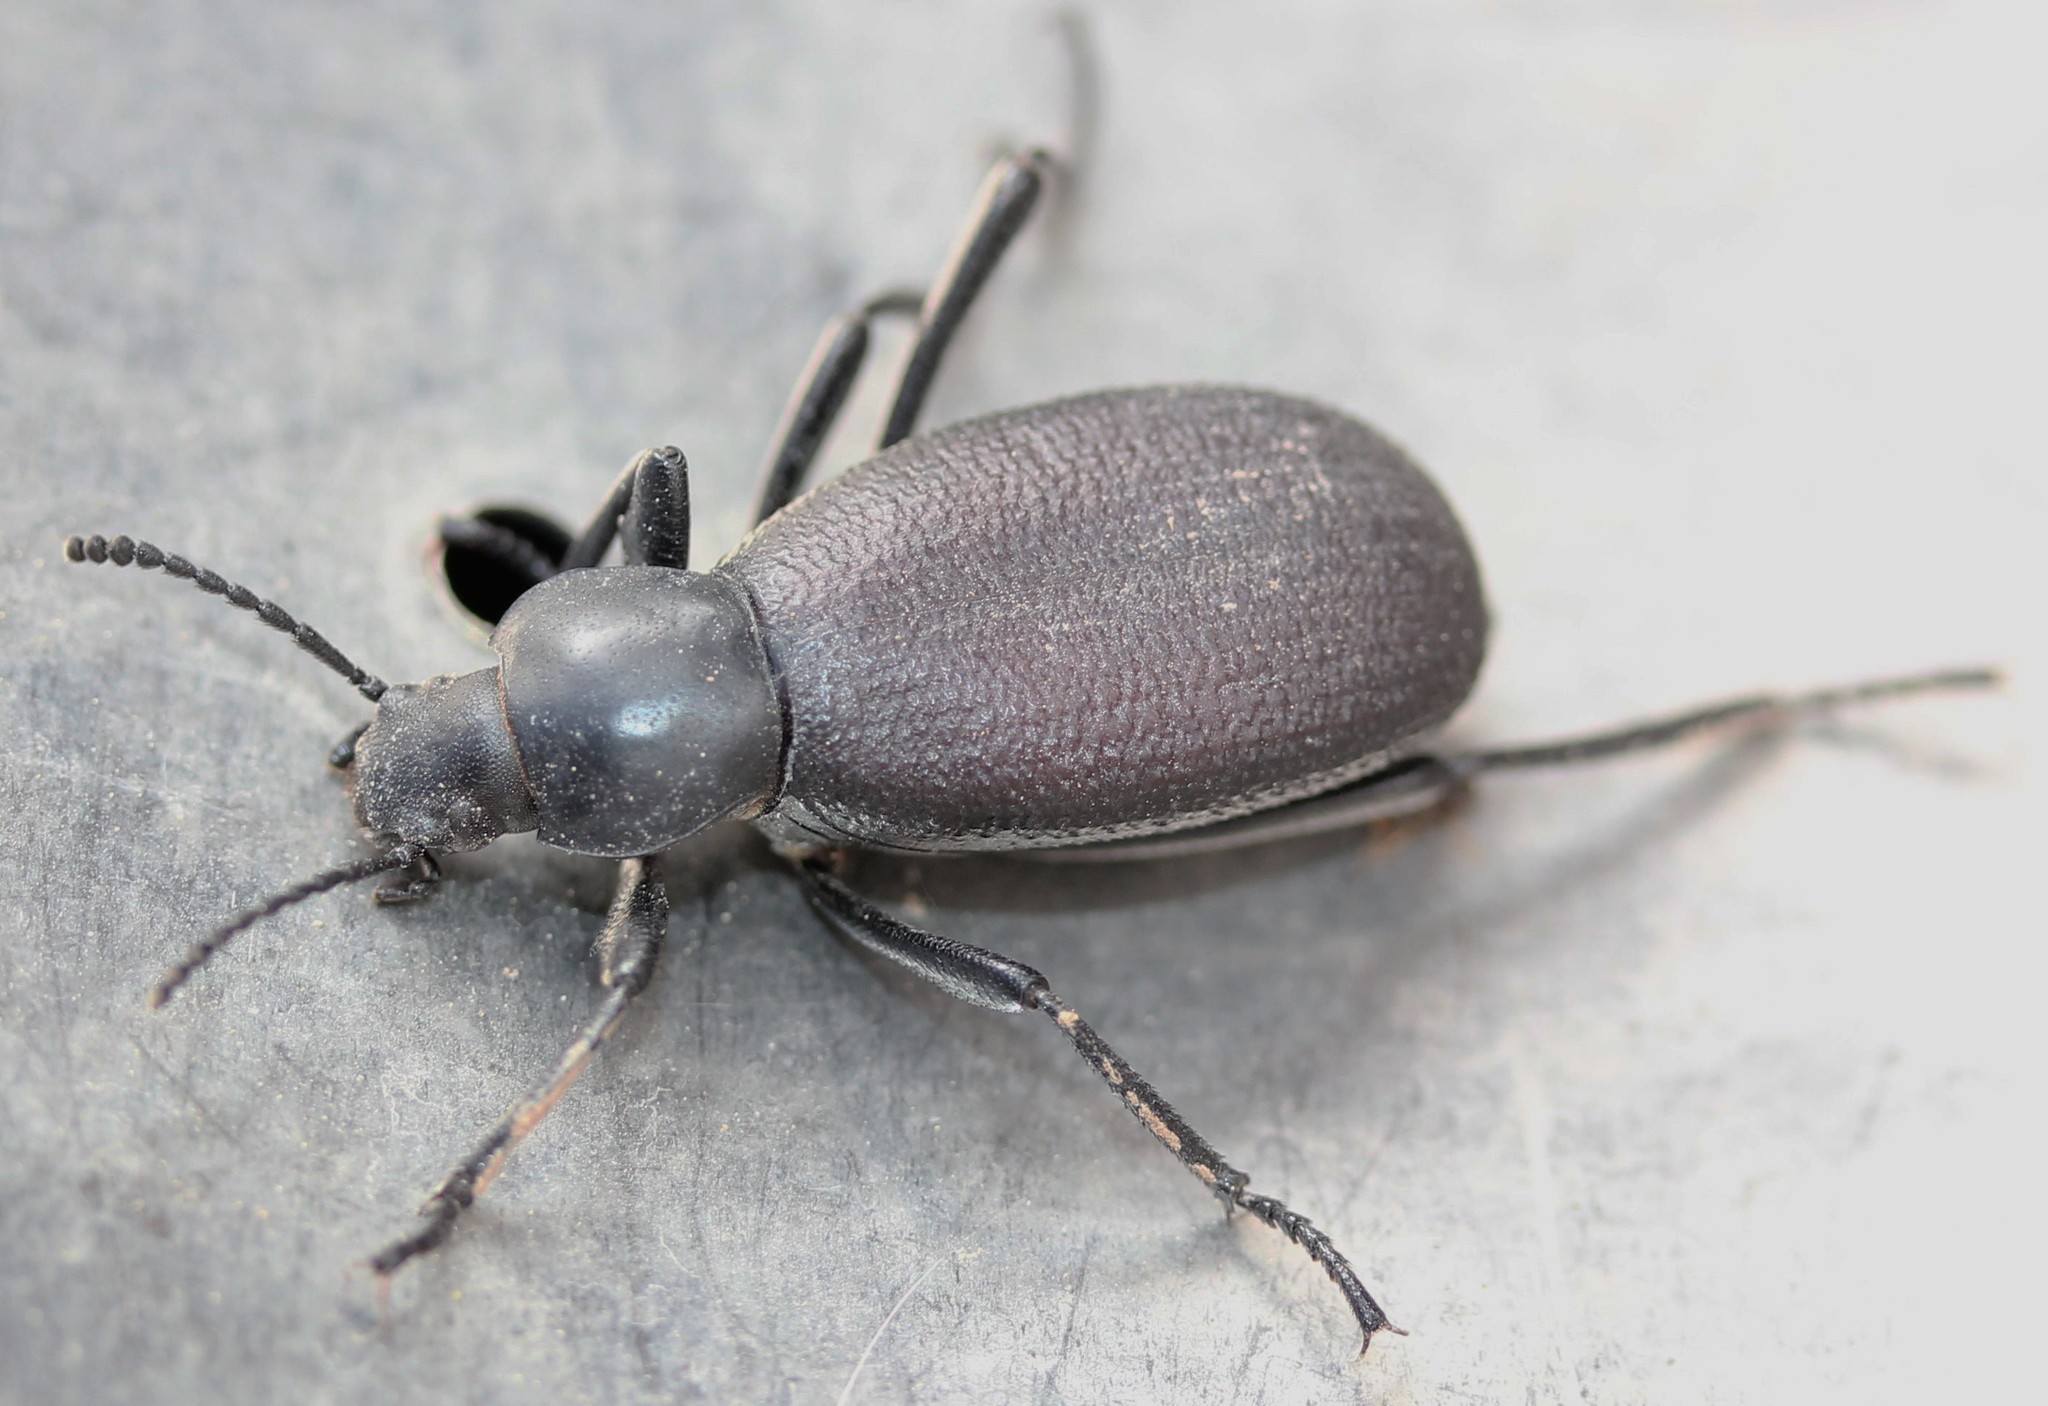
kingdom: Animalia
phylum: Arthropoda
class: Insecta
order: Coleoptera
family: Tenebrionidae
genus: Eleodes
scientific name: Eleodes sponsa
